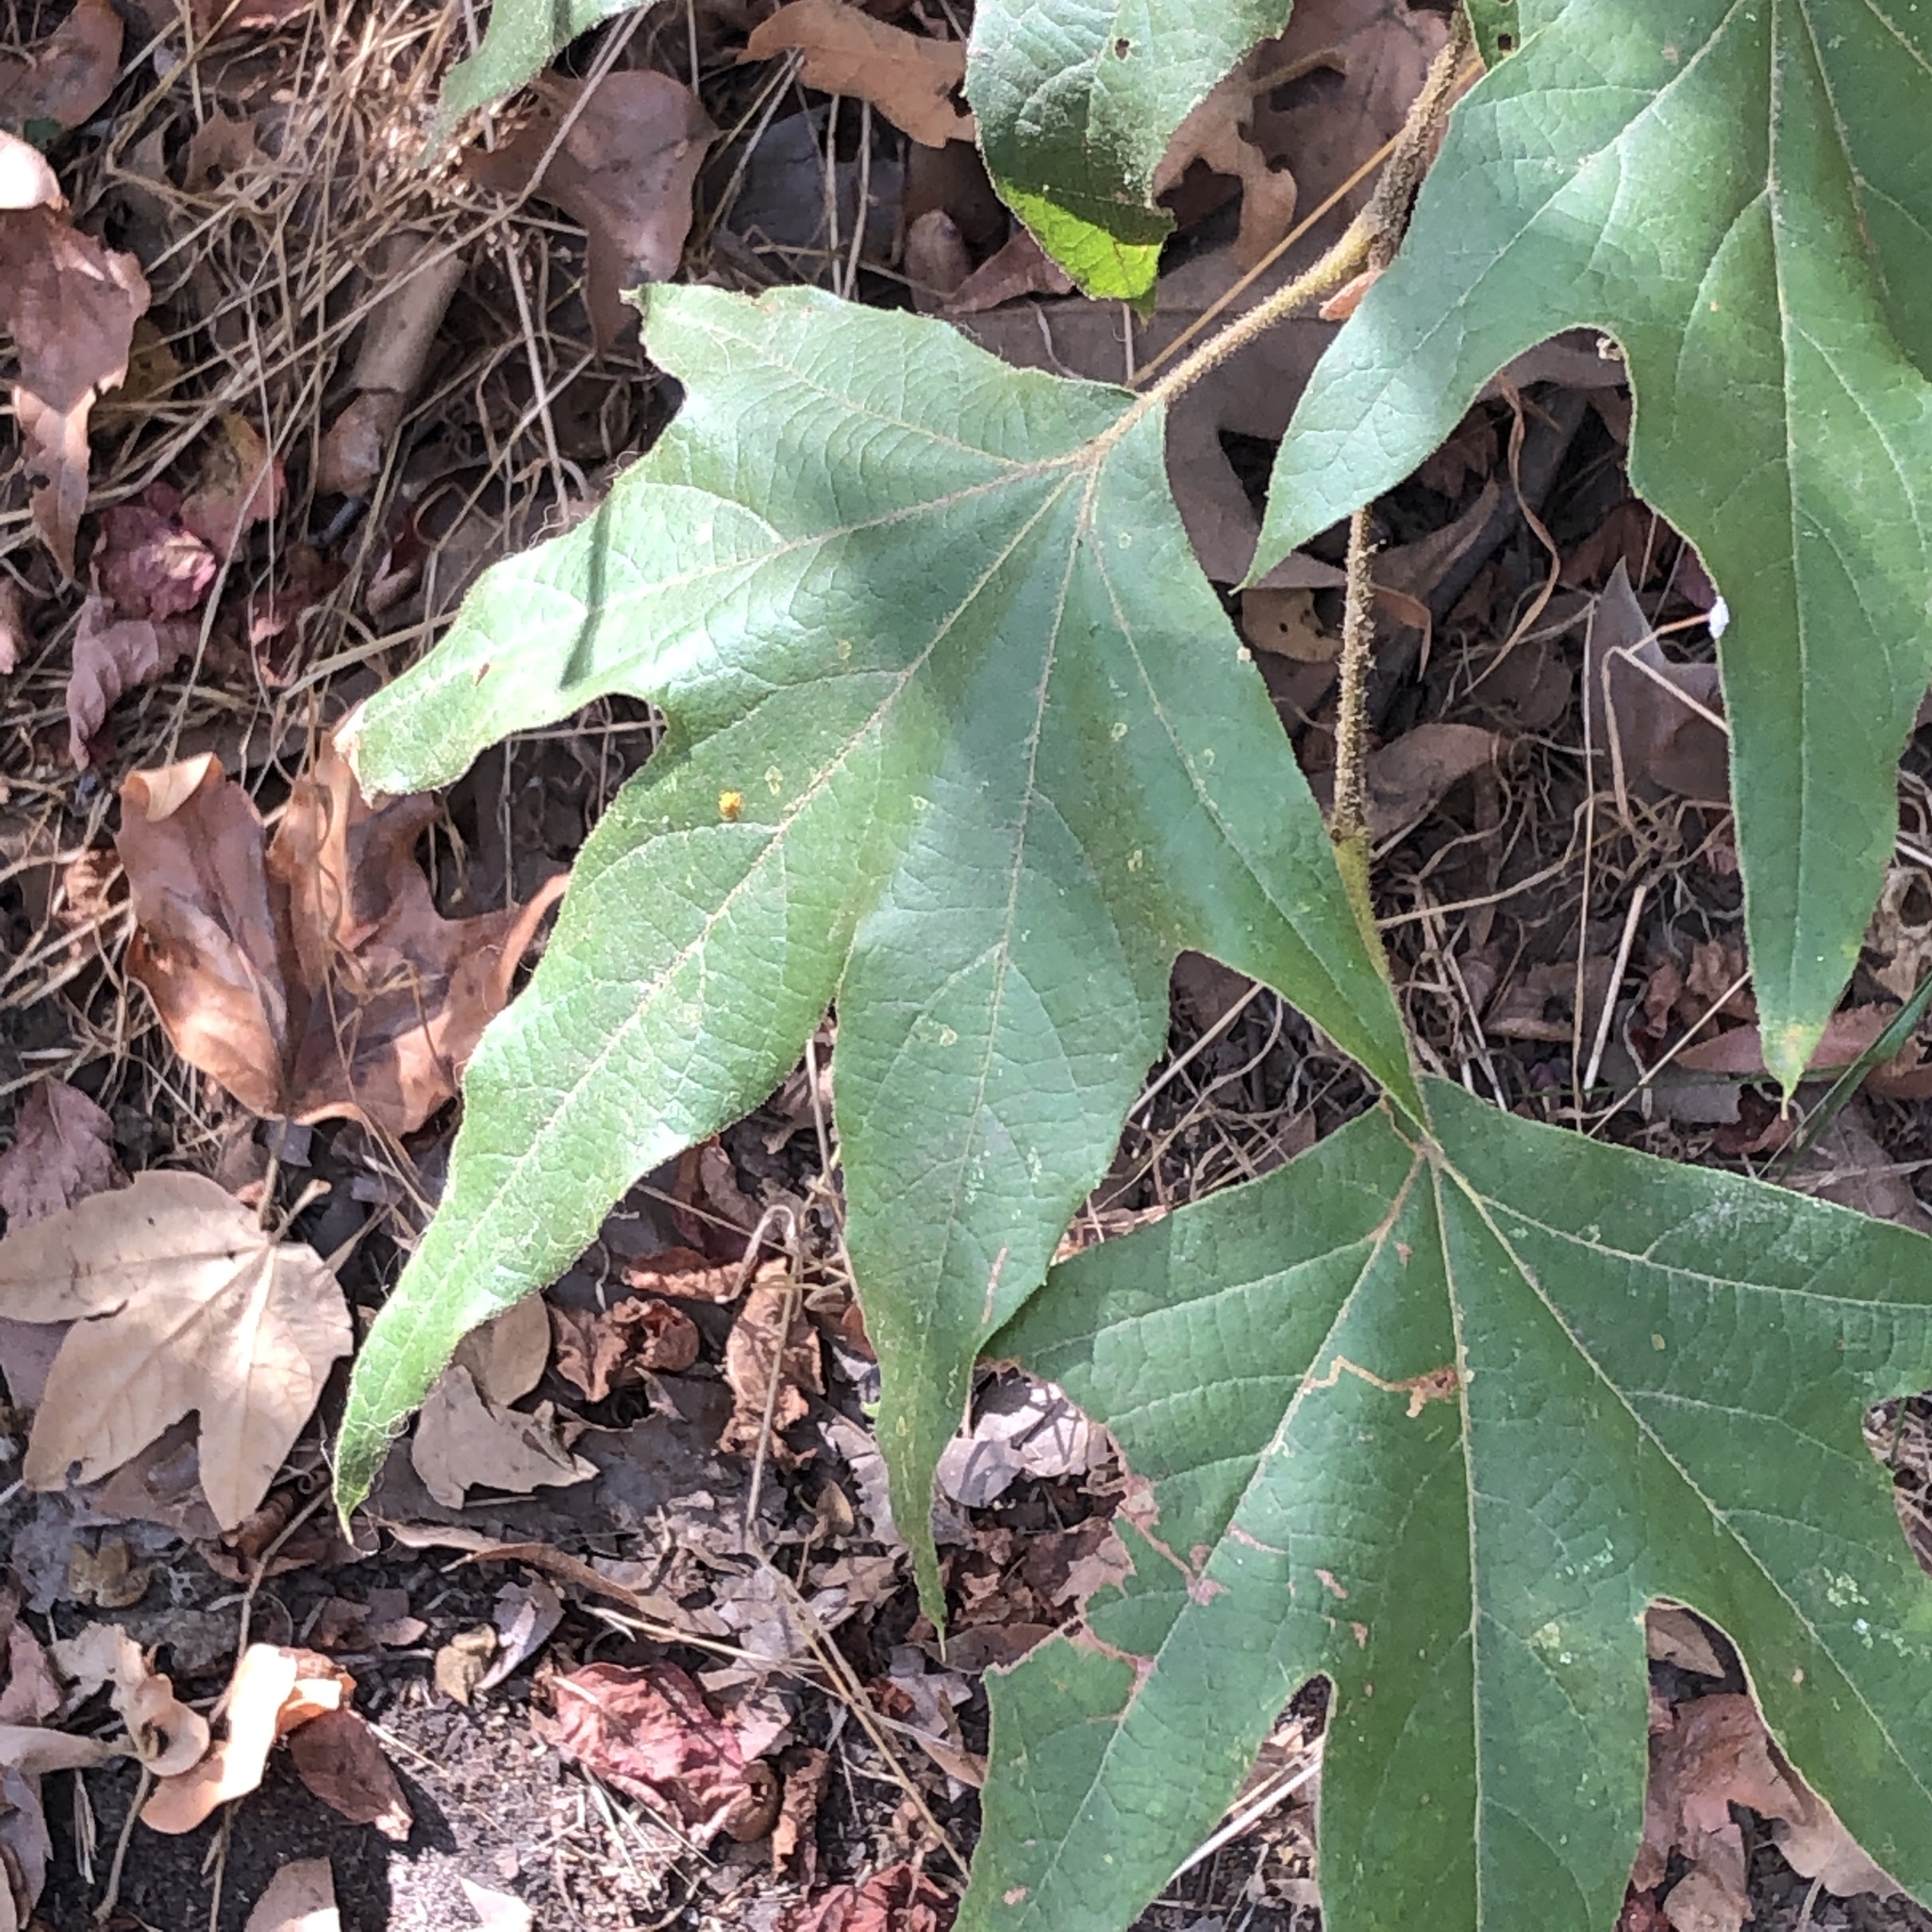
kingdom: Plantae
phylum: Tracheophyta
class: Magnoliopsida
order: Proteales
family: Platanaceae
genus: Platanus
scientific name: Platanus racemosa
